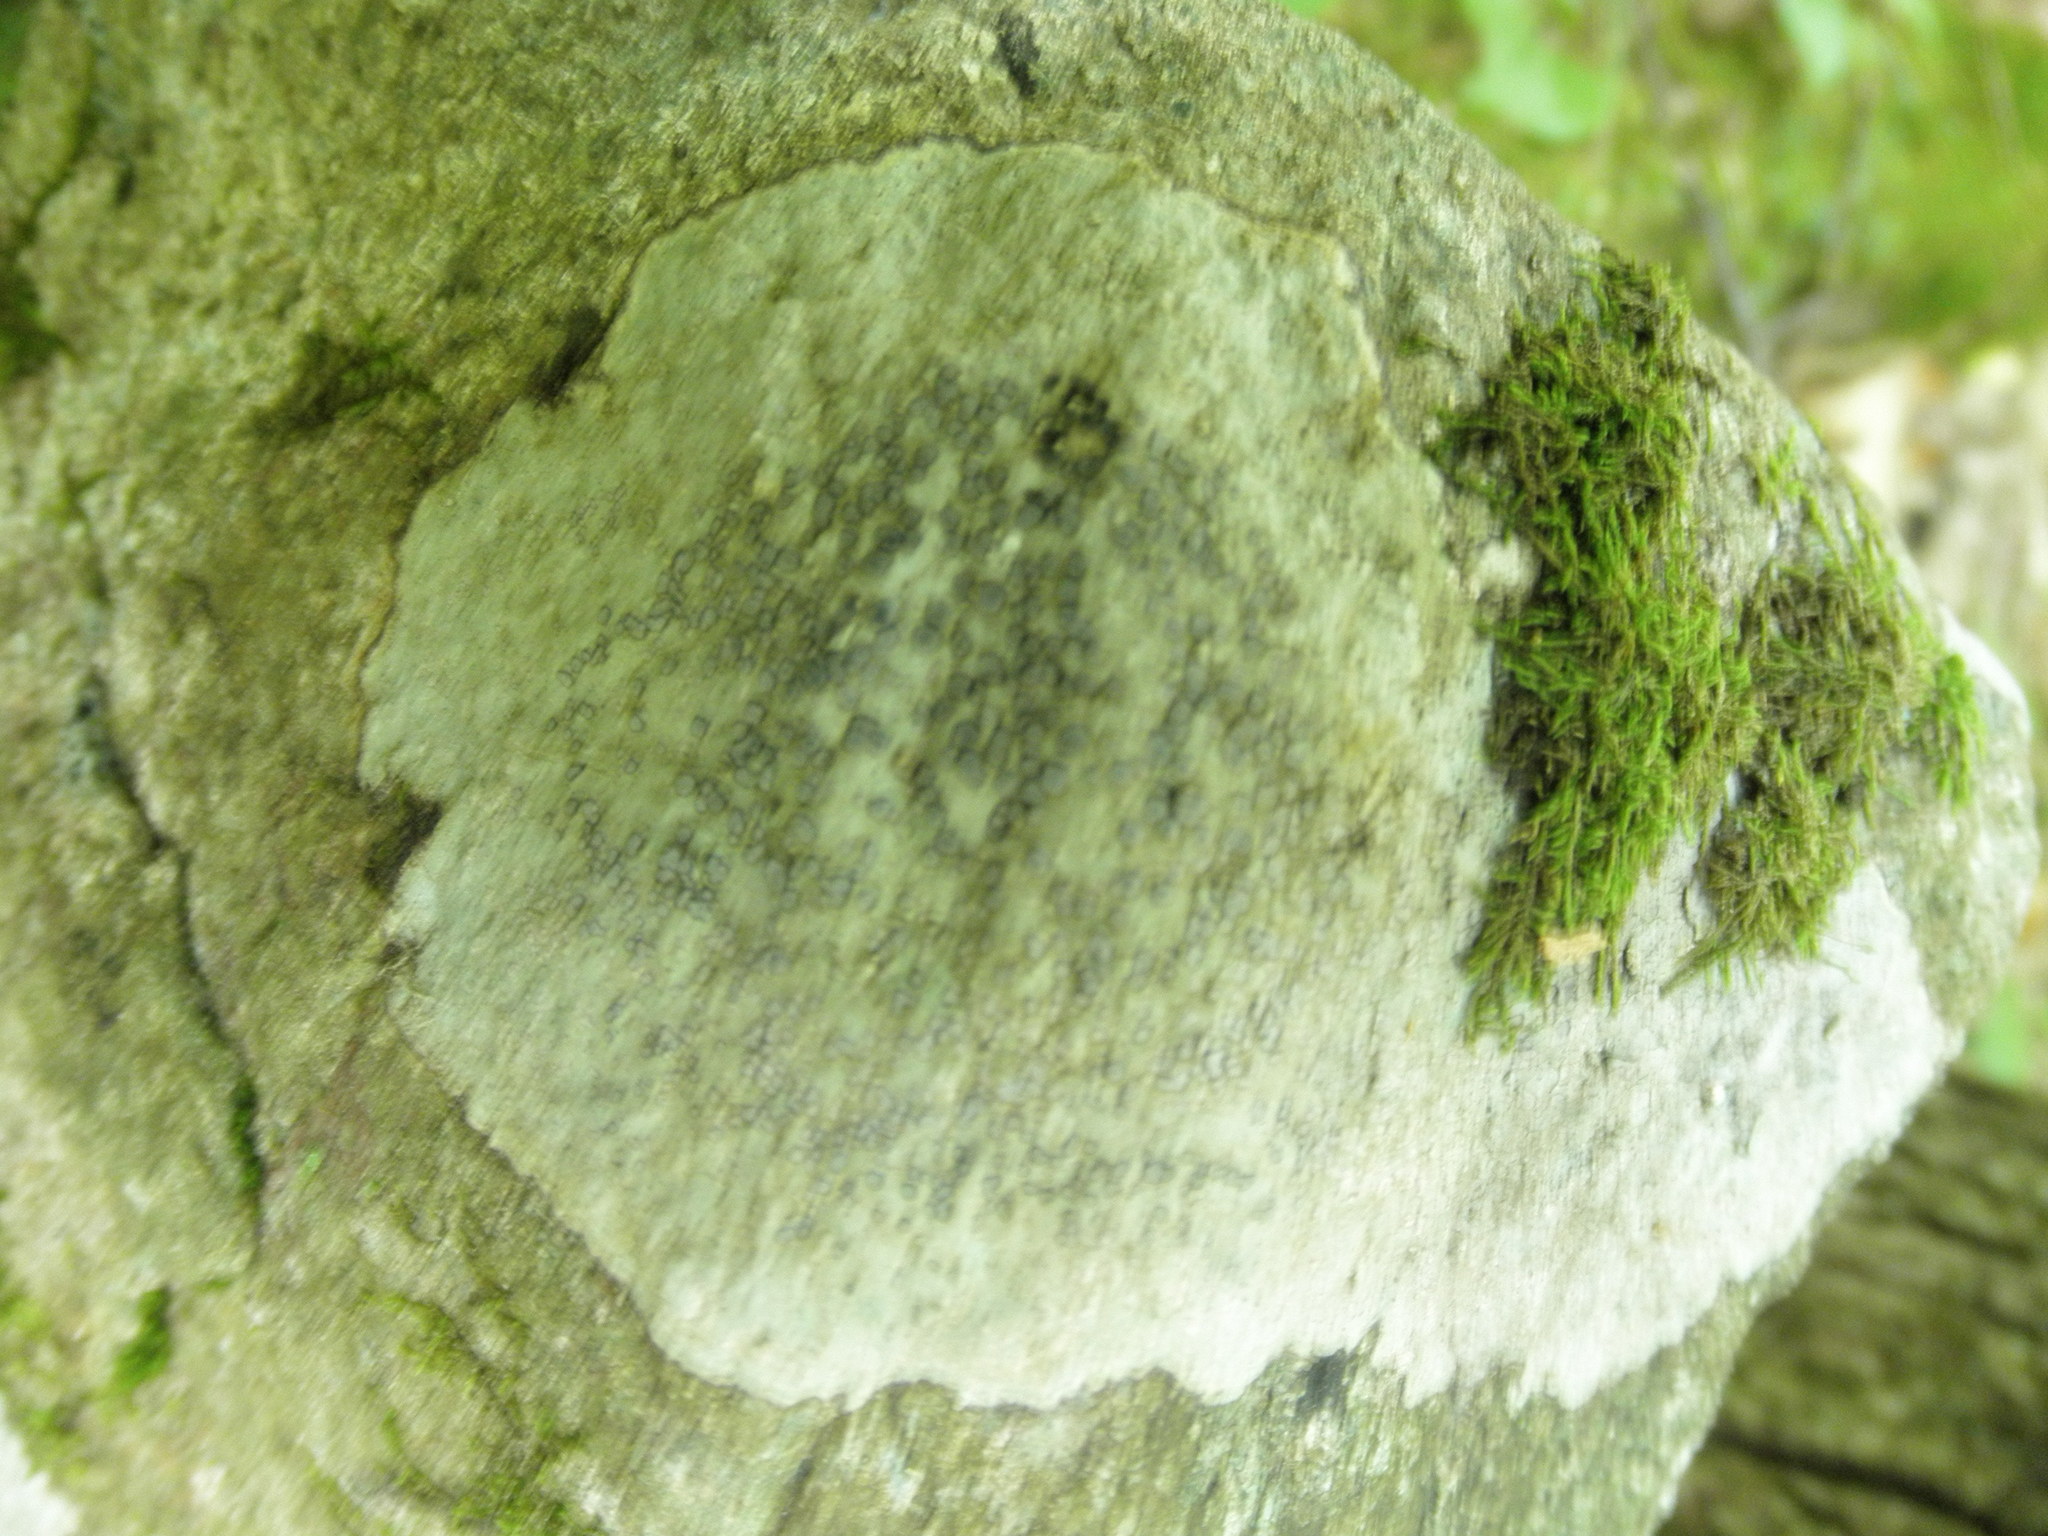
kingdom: Fungi
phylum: Ascomycota
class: Lecanoromycetes
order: Lecideales
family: Lecideaceae
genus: Porpidia
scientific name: Porpidia albocaerulescens
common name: Smokey-eyed boulder lichen
